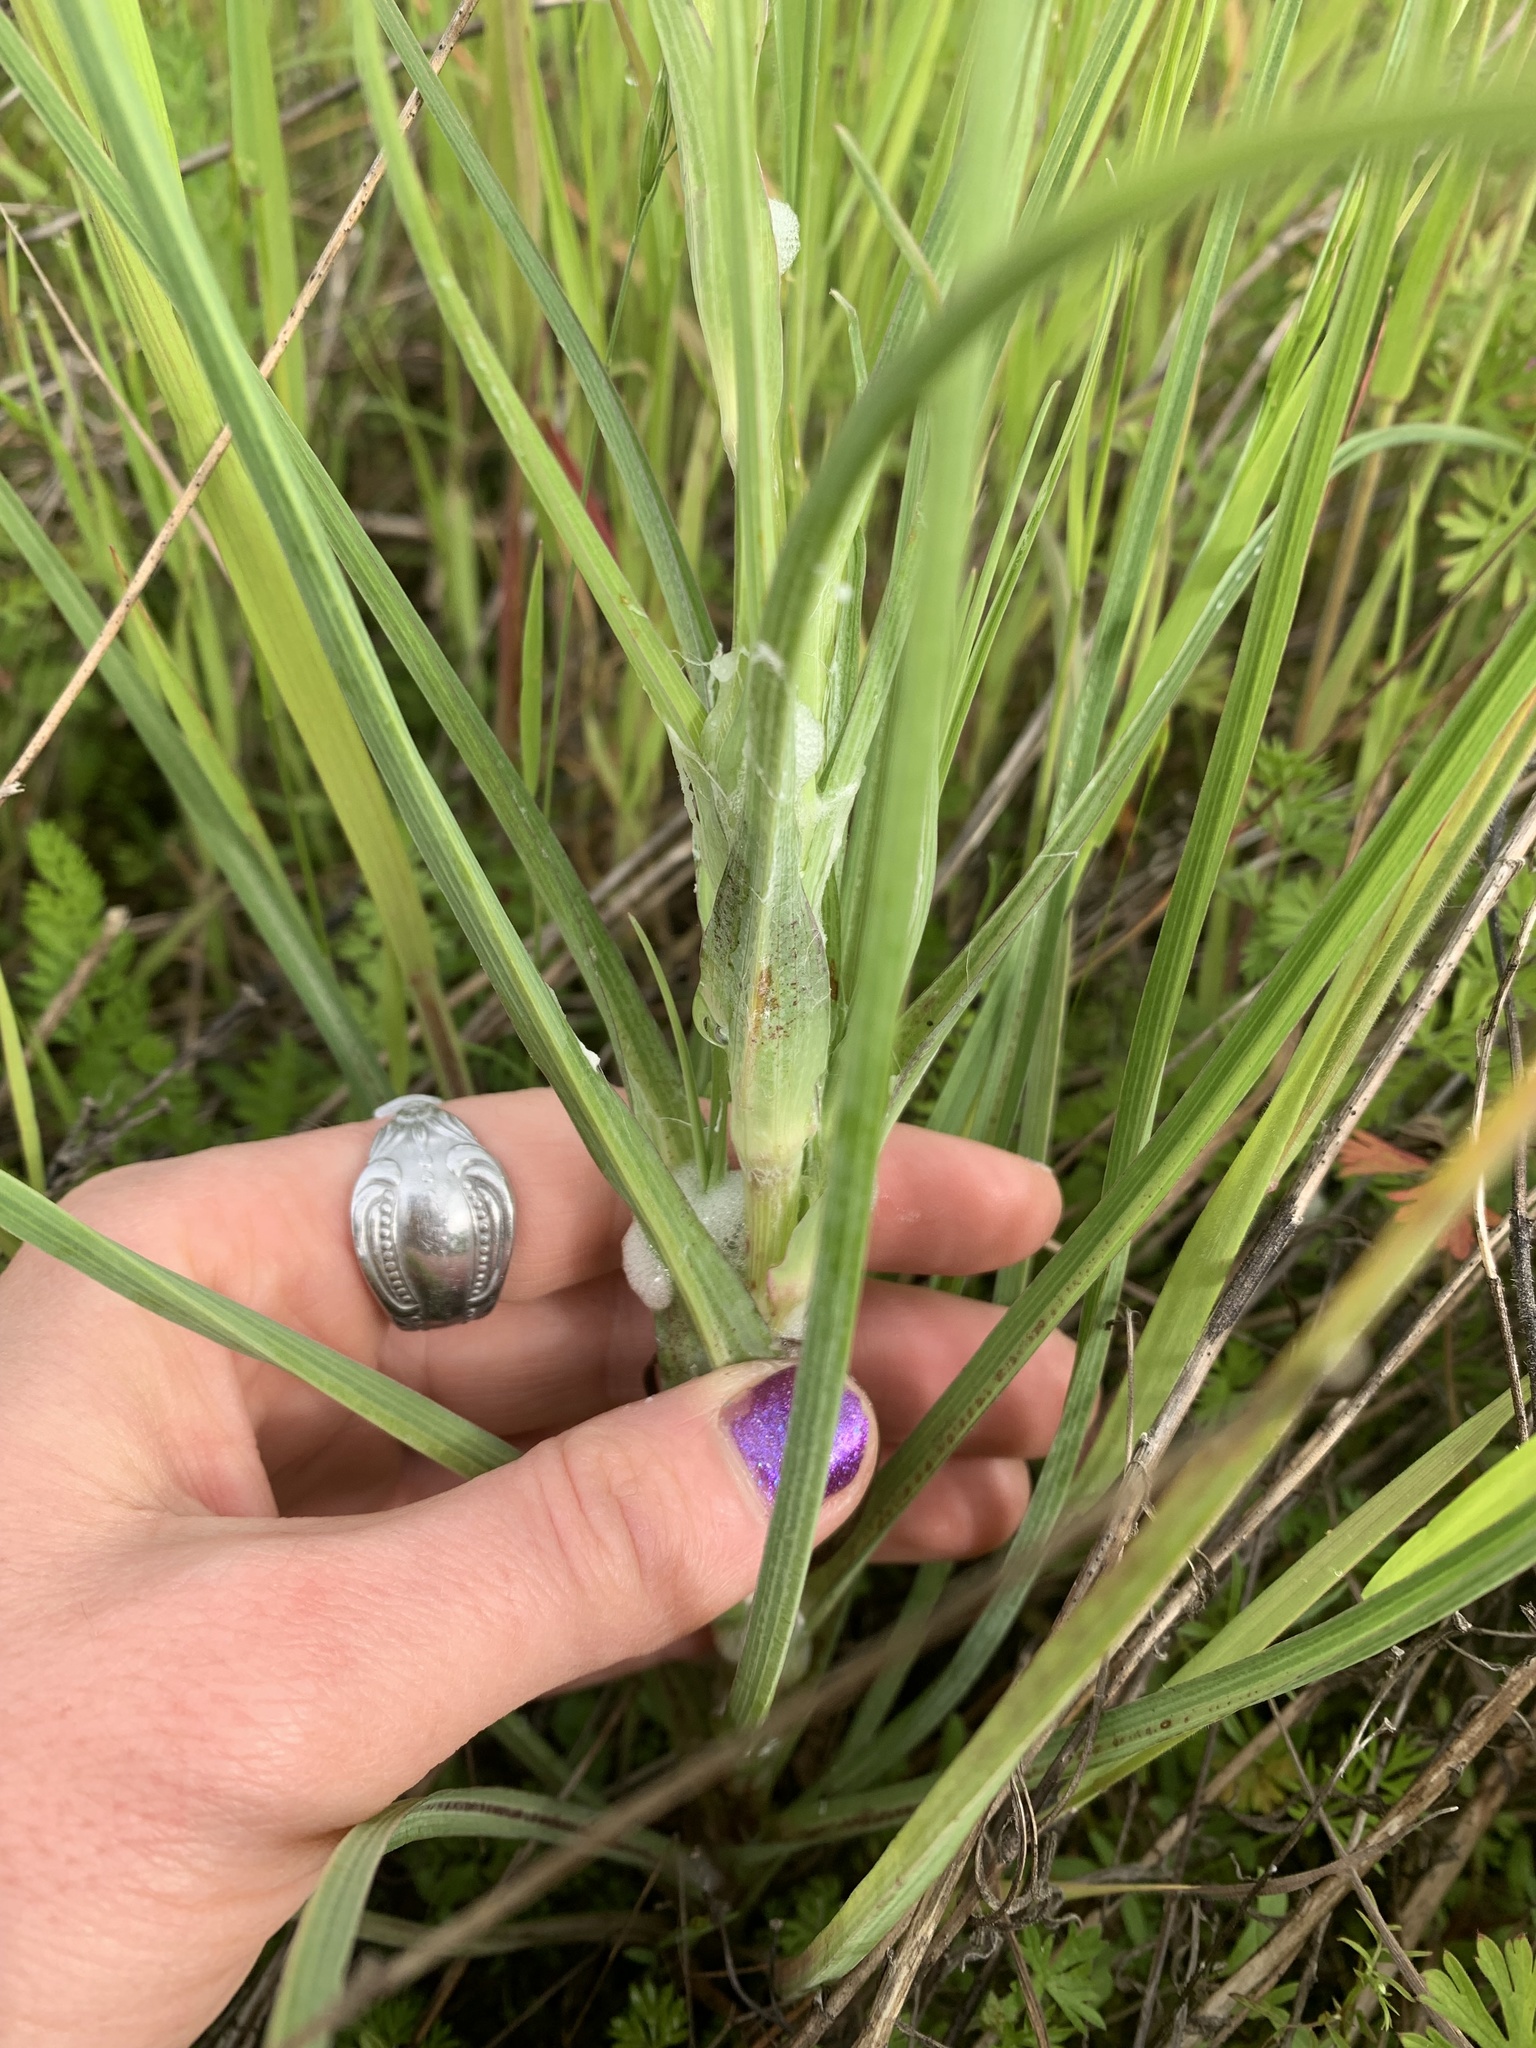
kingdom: Plantae
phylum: Tracheophyta
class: Magnoliopsida
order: Asterales
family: Asteraceae
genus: Tragopogon
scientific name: Tragopogon dubius
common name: Yellow salsify
